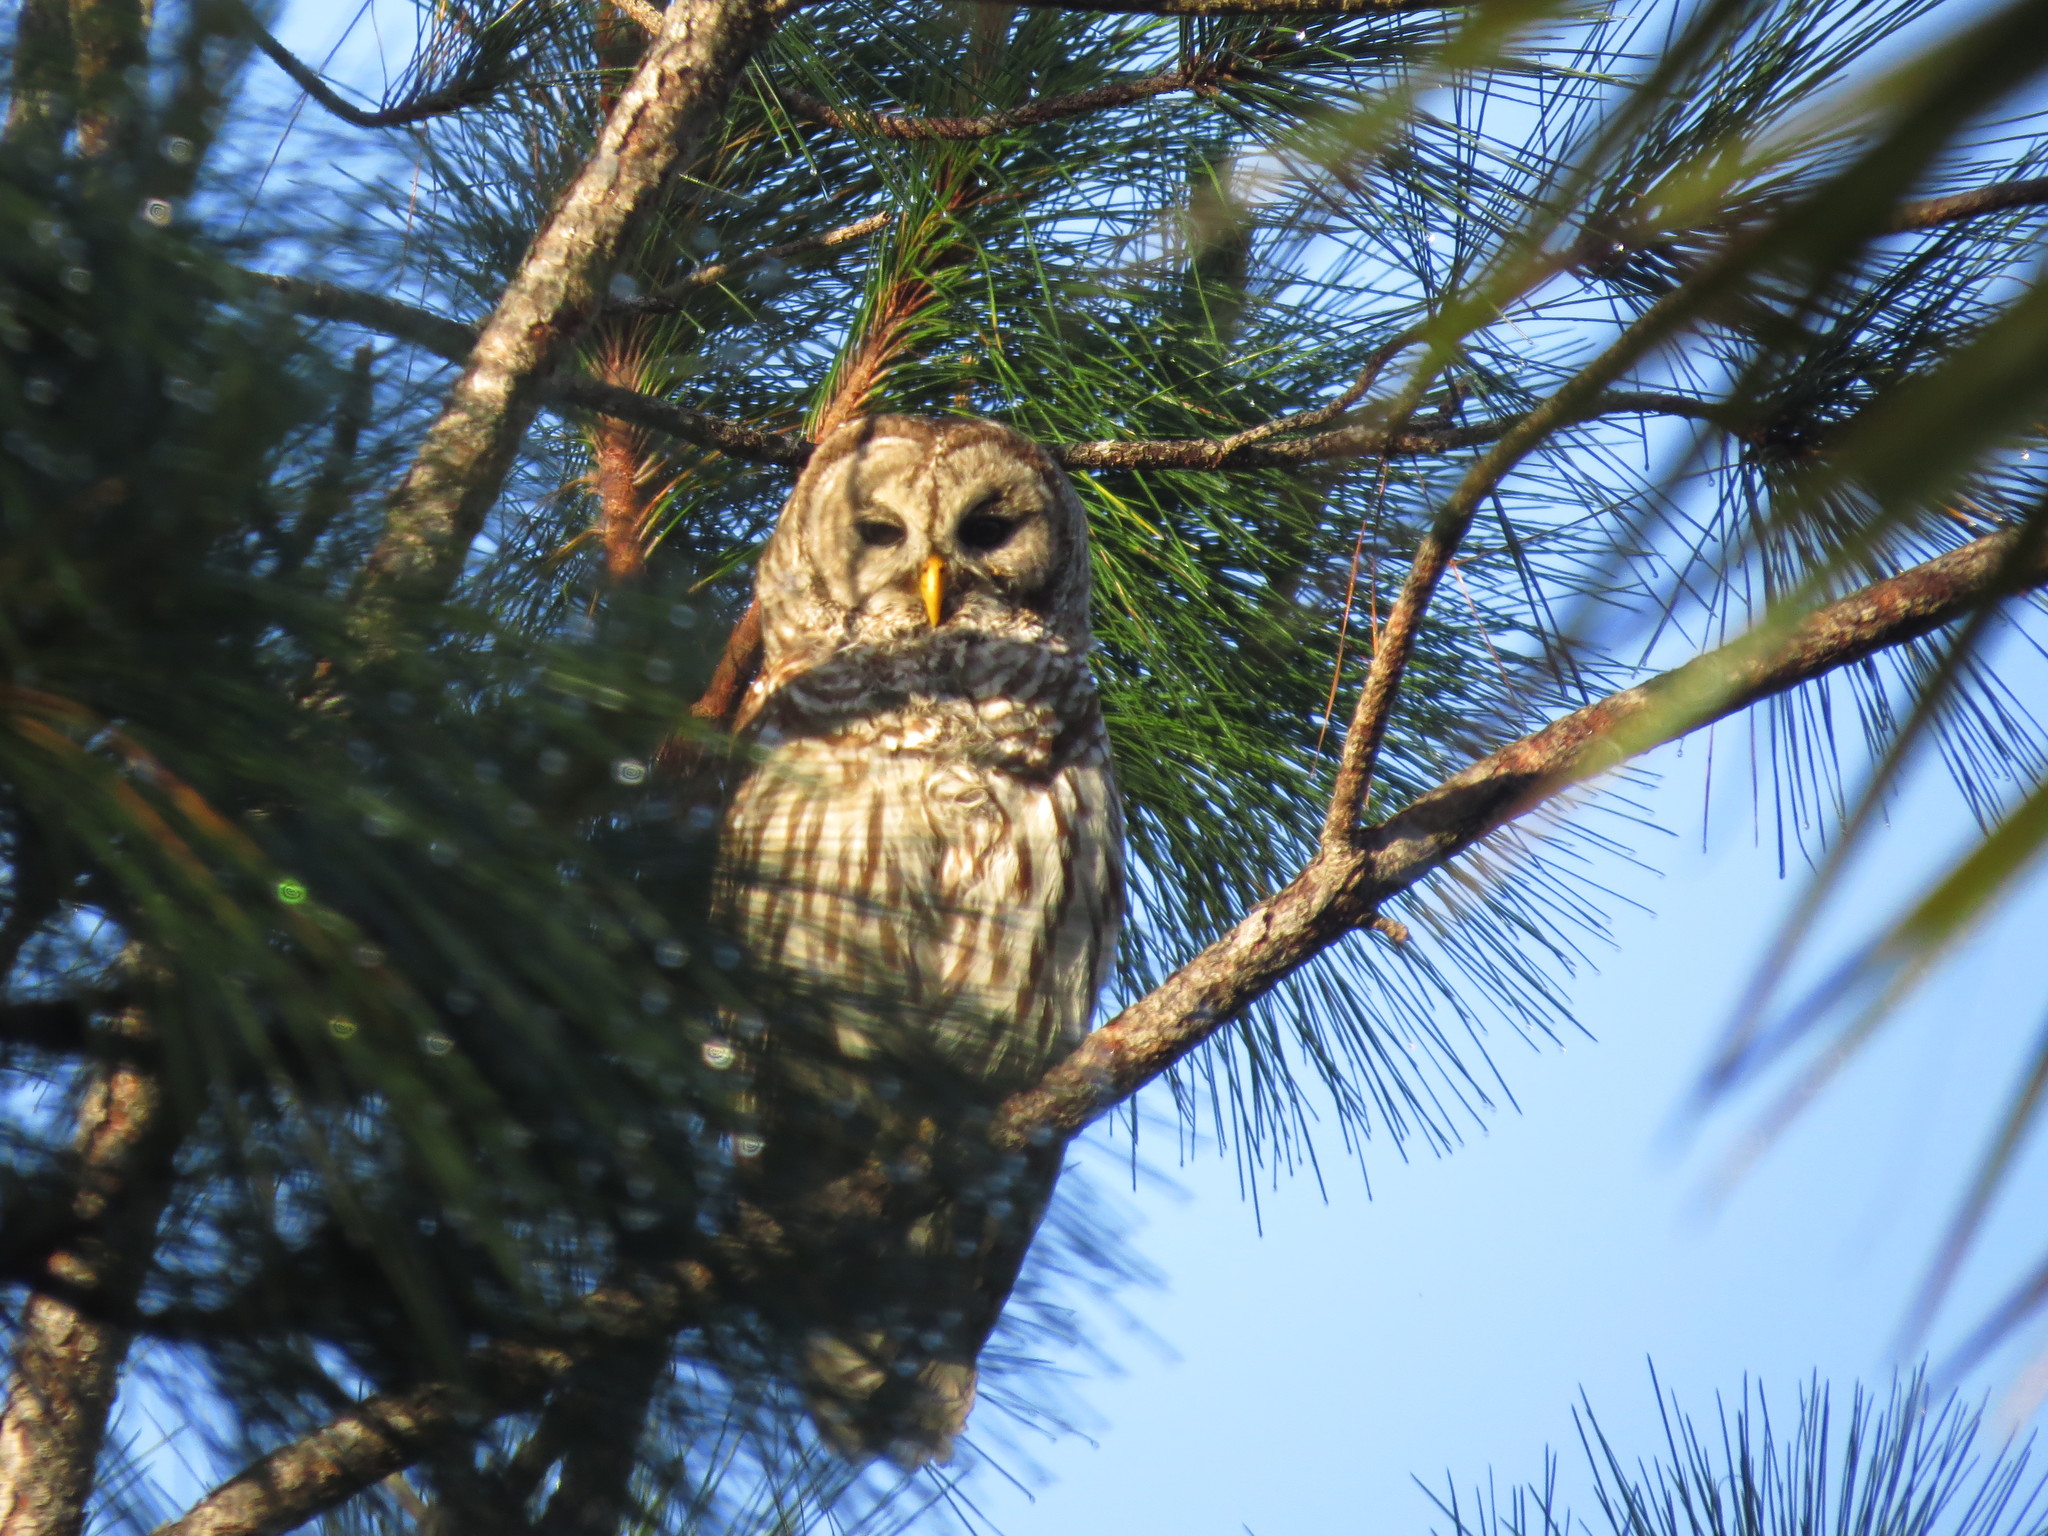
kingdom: Animalia
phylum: Chordata
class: Aves
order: Strigiformes
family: Strigidae
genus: Strix
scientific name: Strix varia
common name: Barred owl
